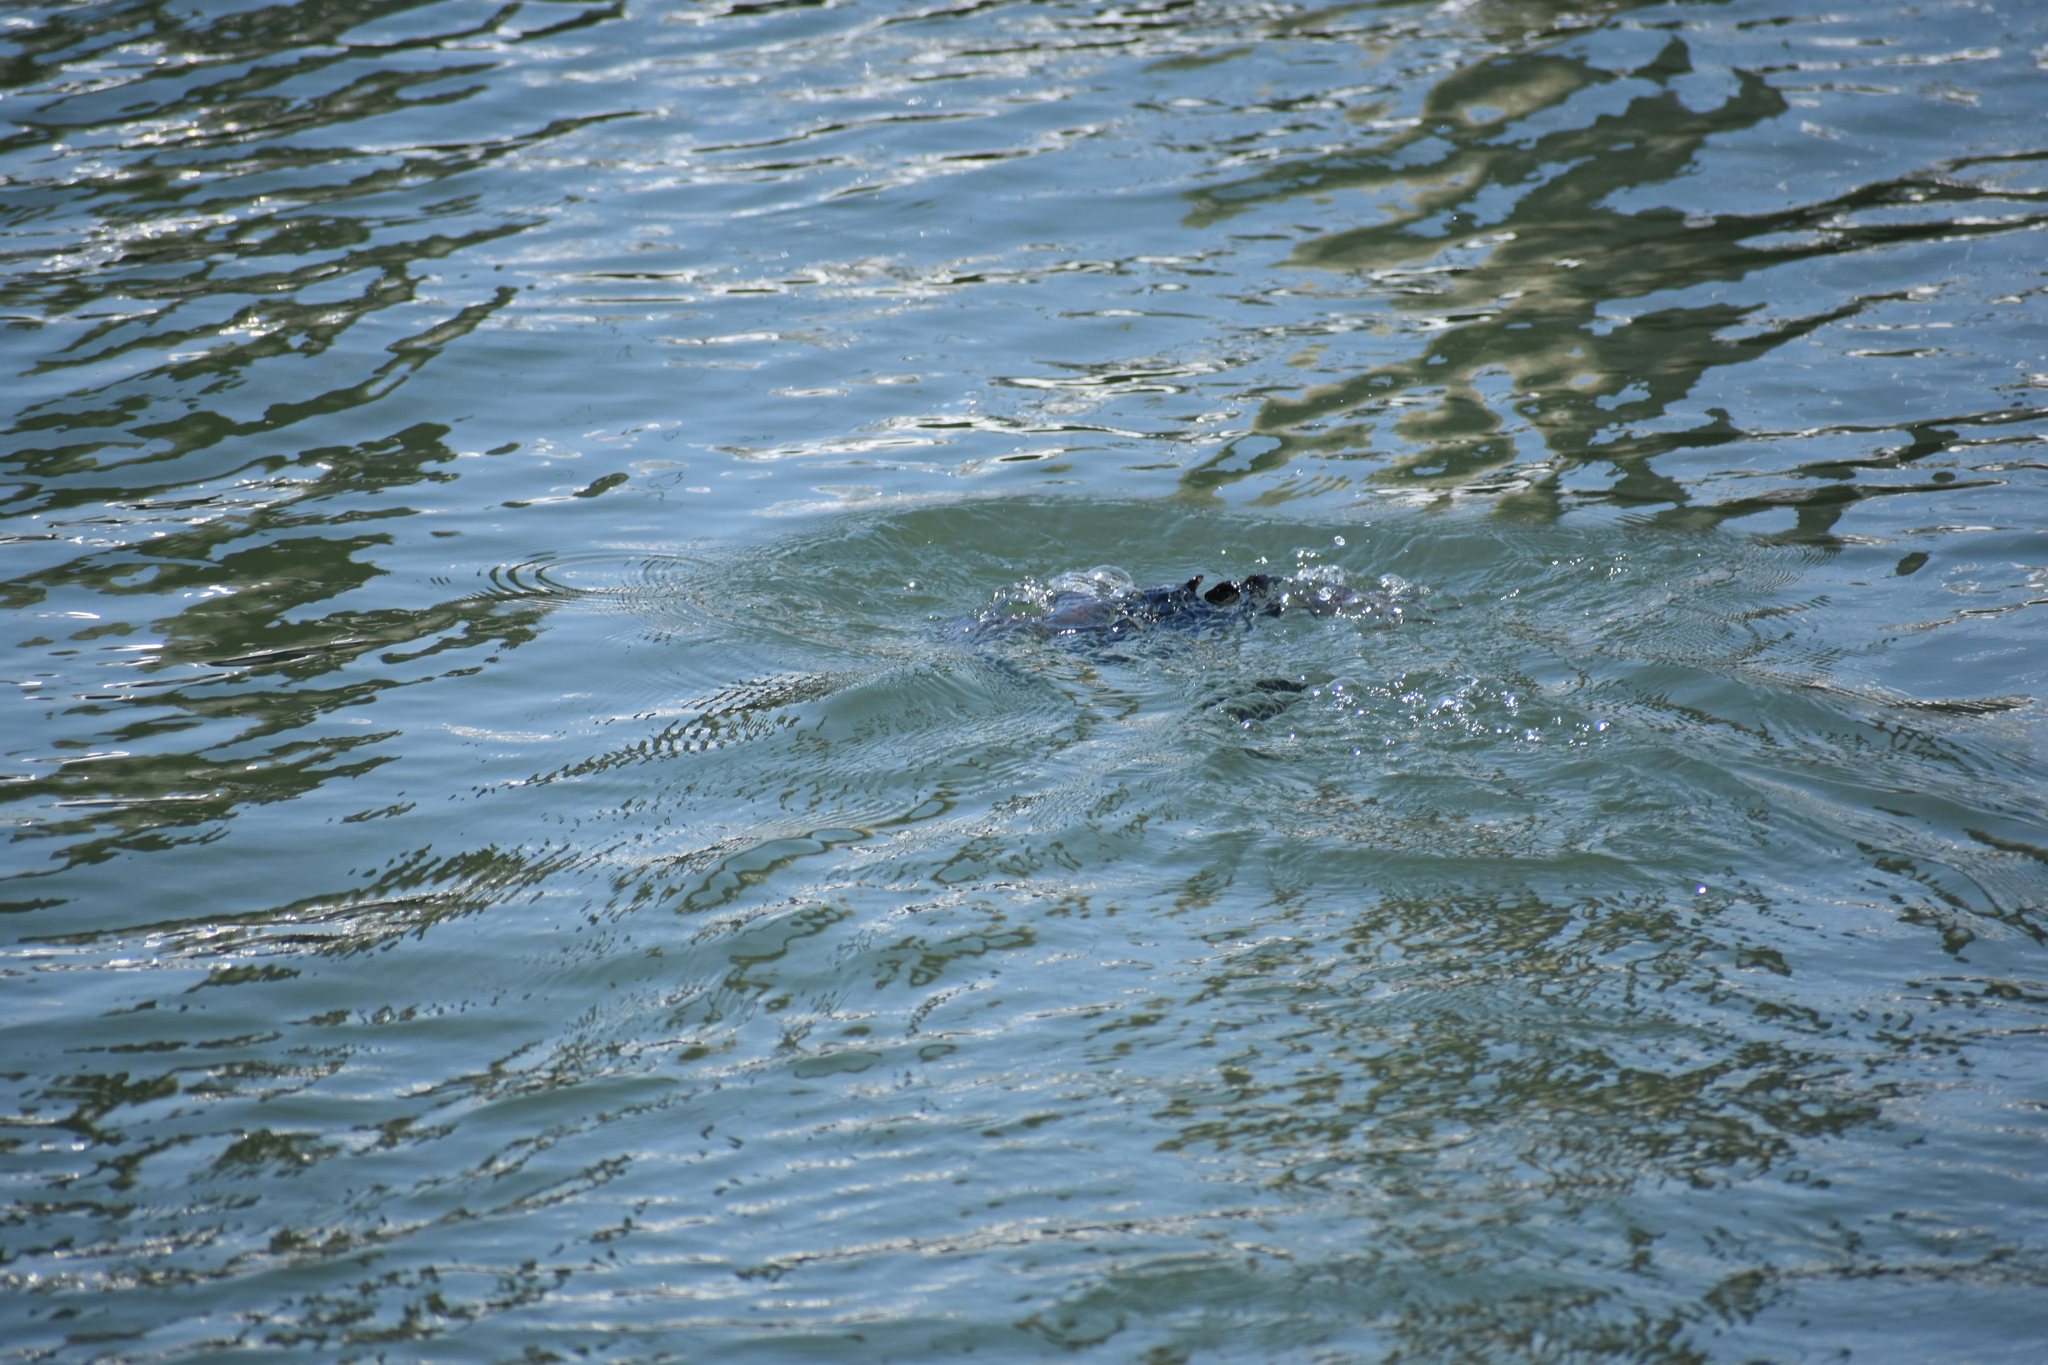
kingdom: Animalia
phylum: Chordata
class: Aves
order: Suliformes
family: Phalacrocoracidae
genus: Phalacrocorax
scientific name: Phalacrocorax auritus
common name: Double-crested cormorant
